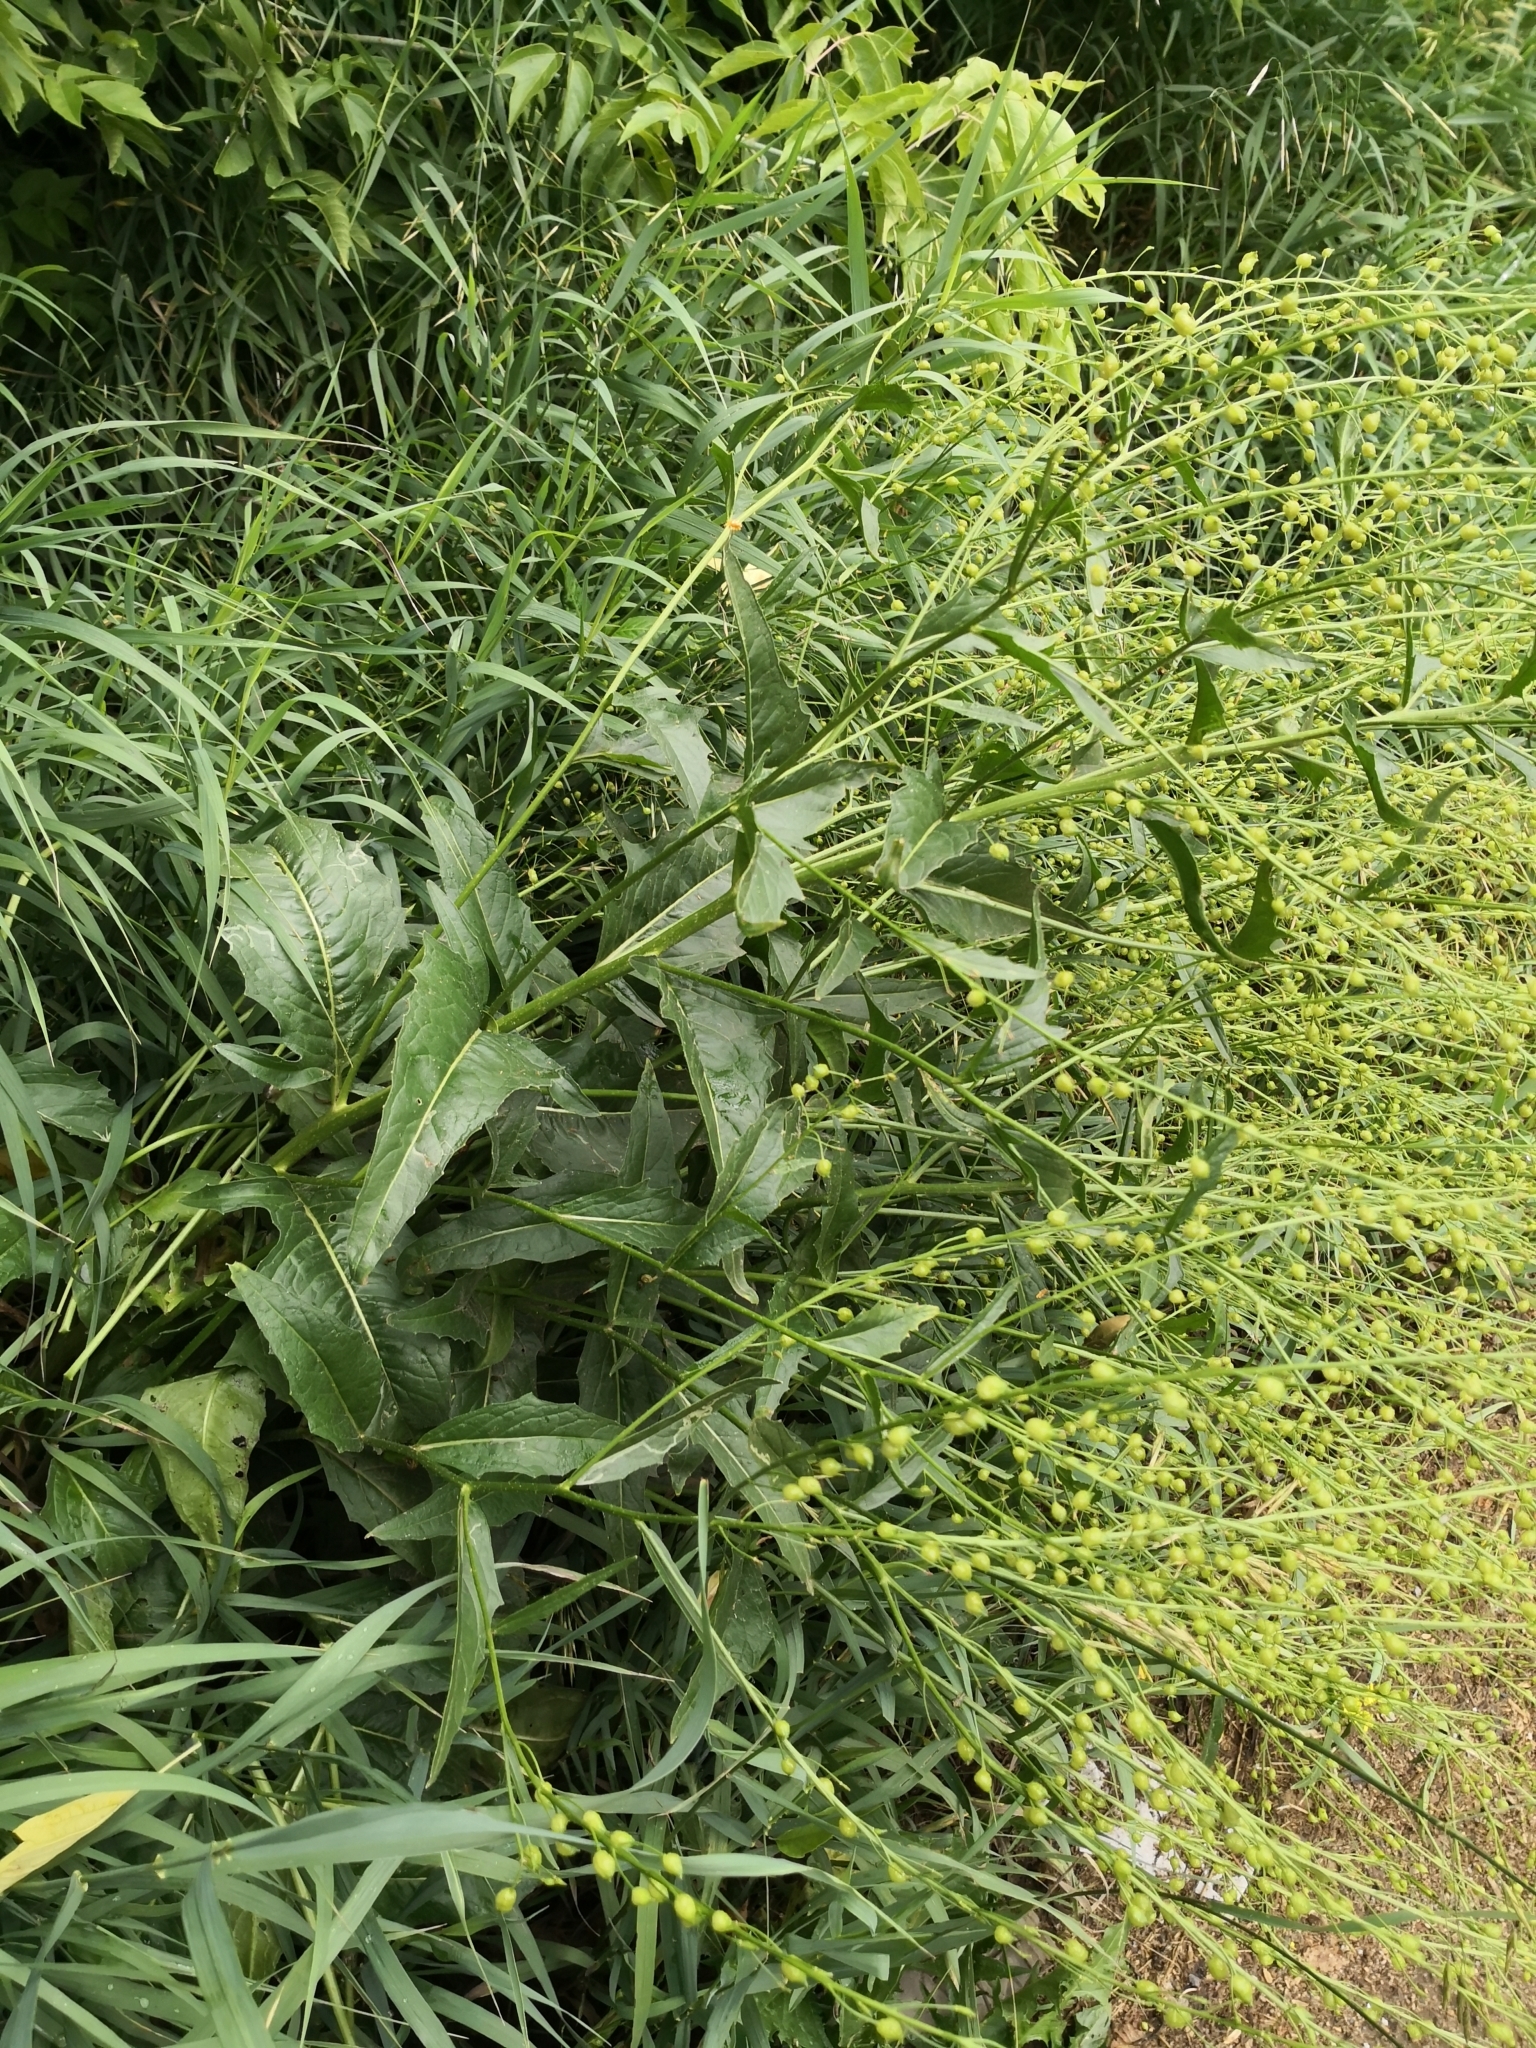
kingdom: Plantae
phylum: Tracheophyta
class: Magnoliopsida
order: Brassicales
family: Brassicaceae
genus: Bunias
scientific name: Bunias orientalis
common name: Warty-cabbage
